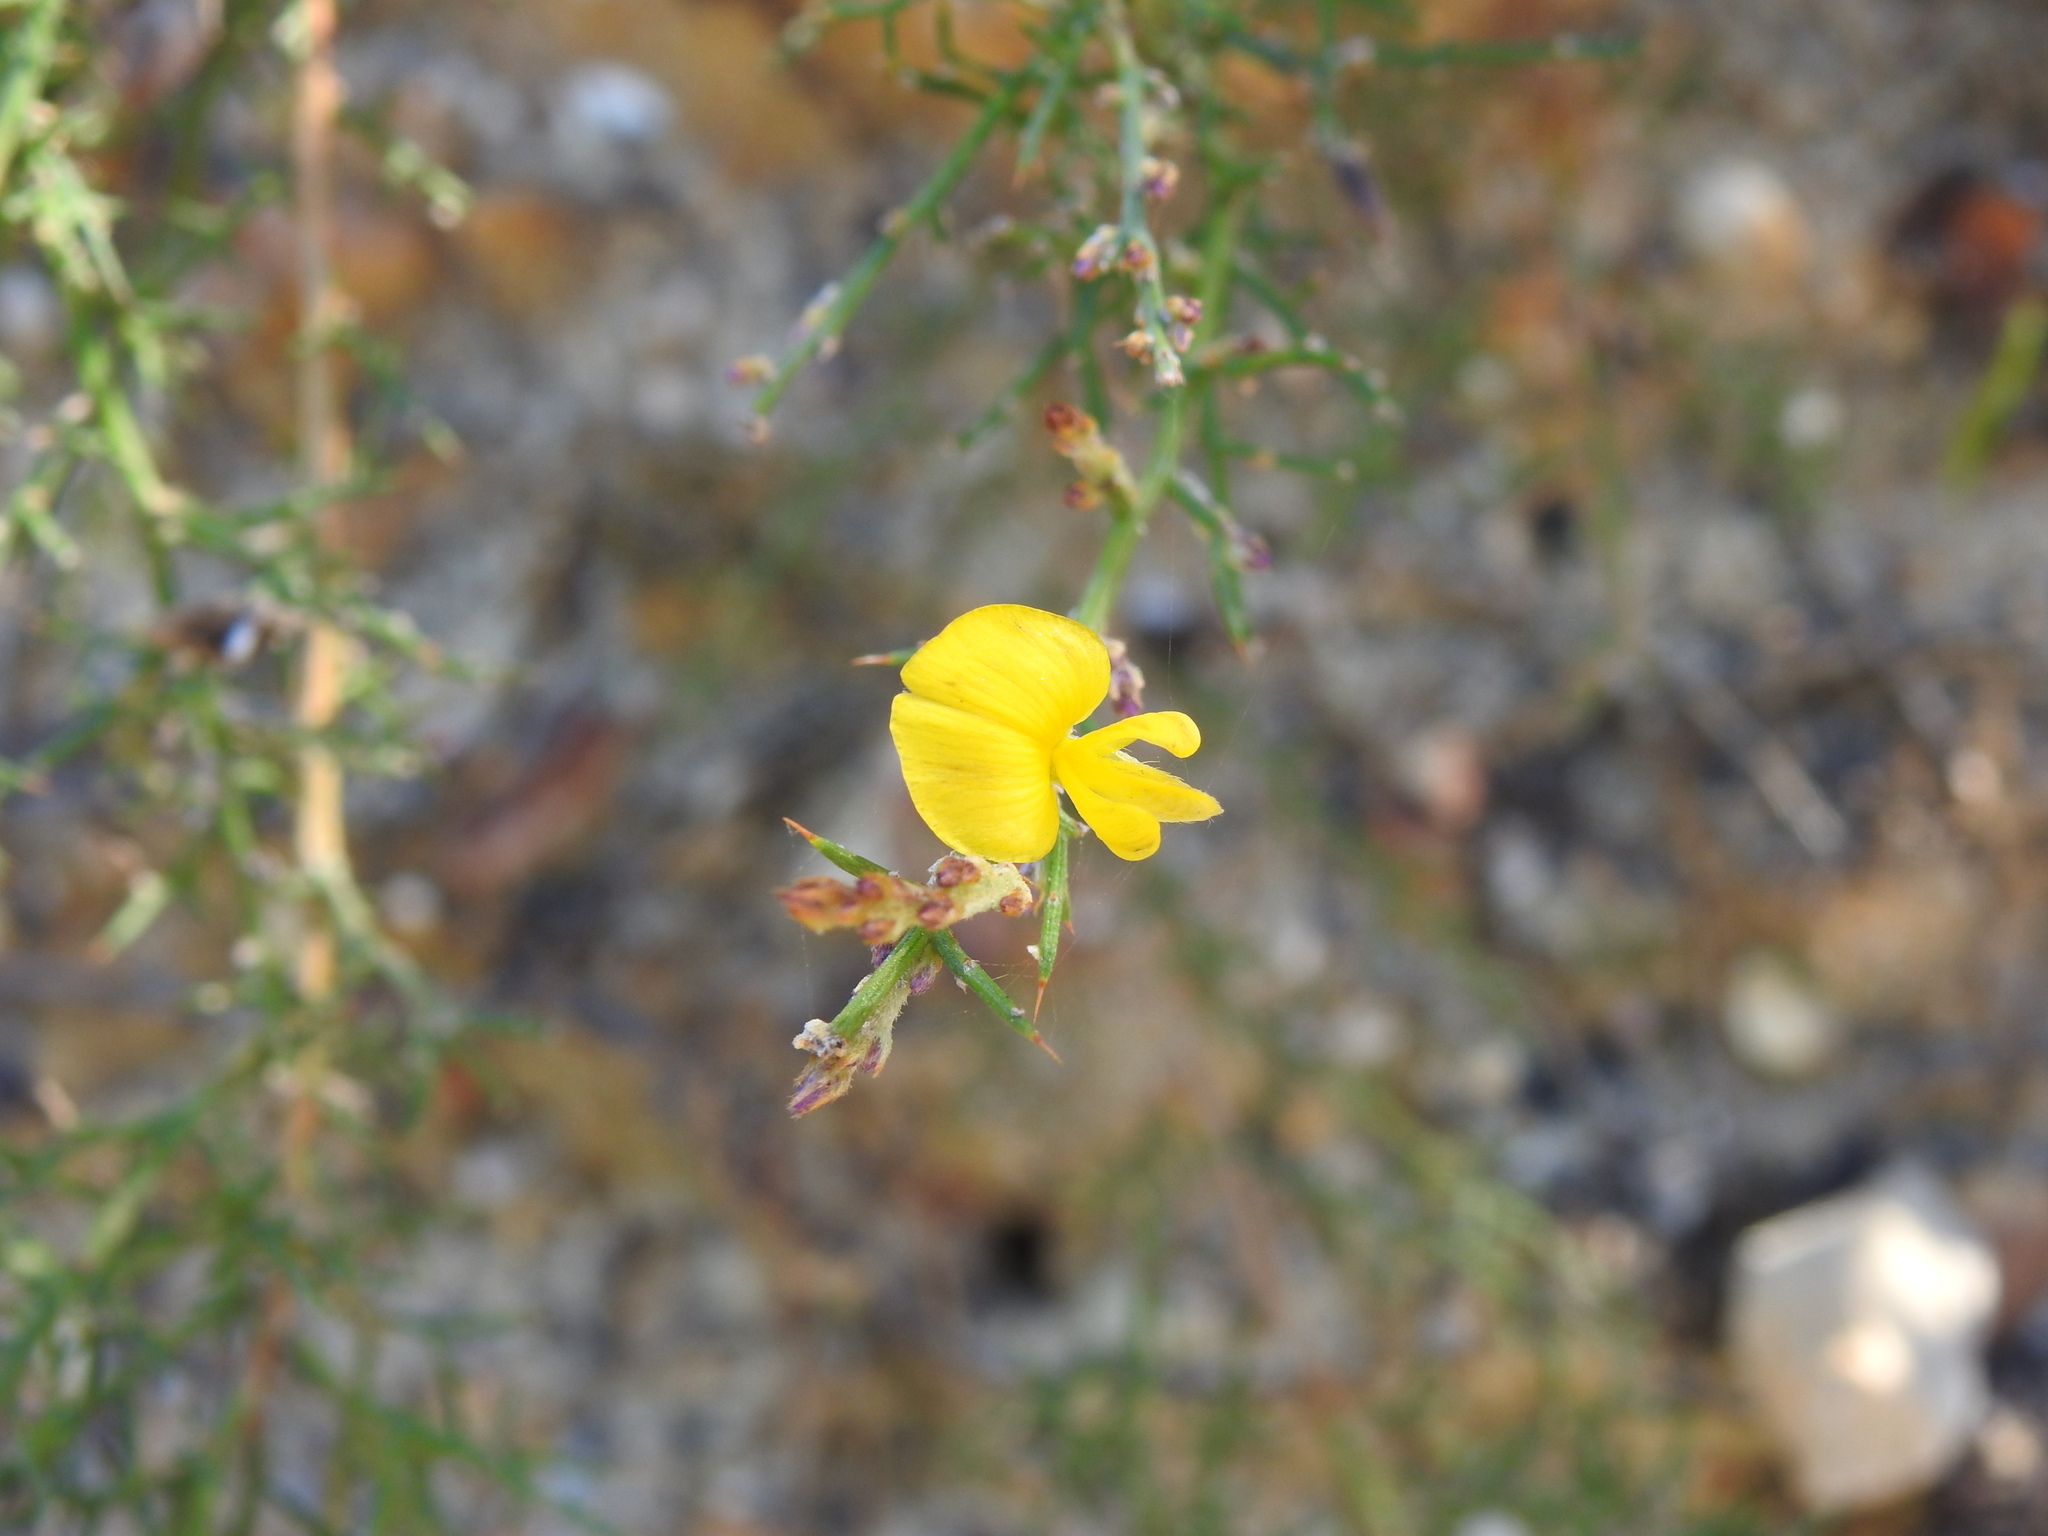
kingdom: Plantae
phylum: Tracheophyta
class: Magnoliopsida
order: Fabales
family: Fabaceae
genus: Stauracanthus
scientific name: Stauracanthus boivinii
